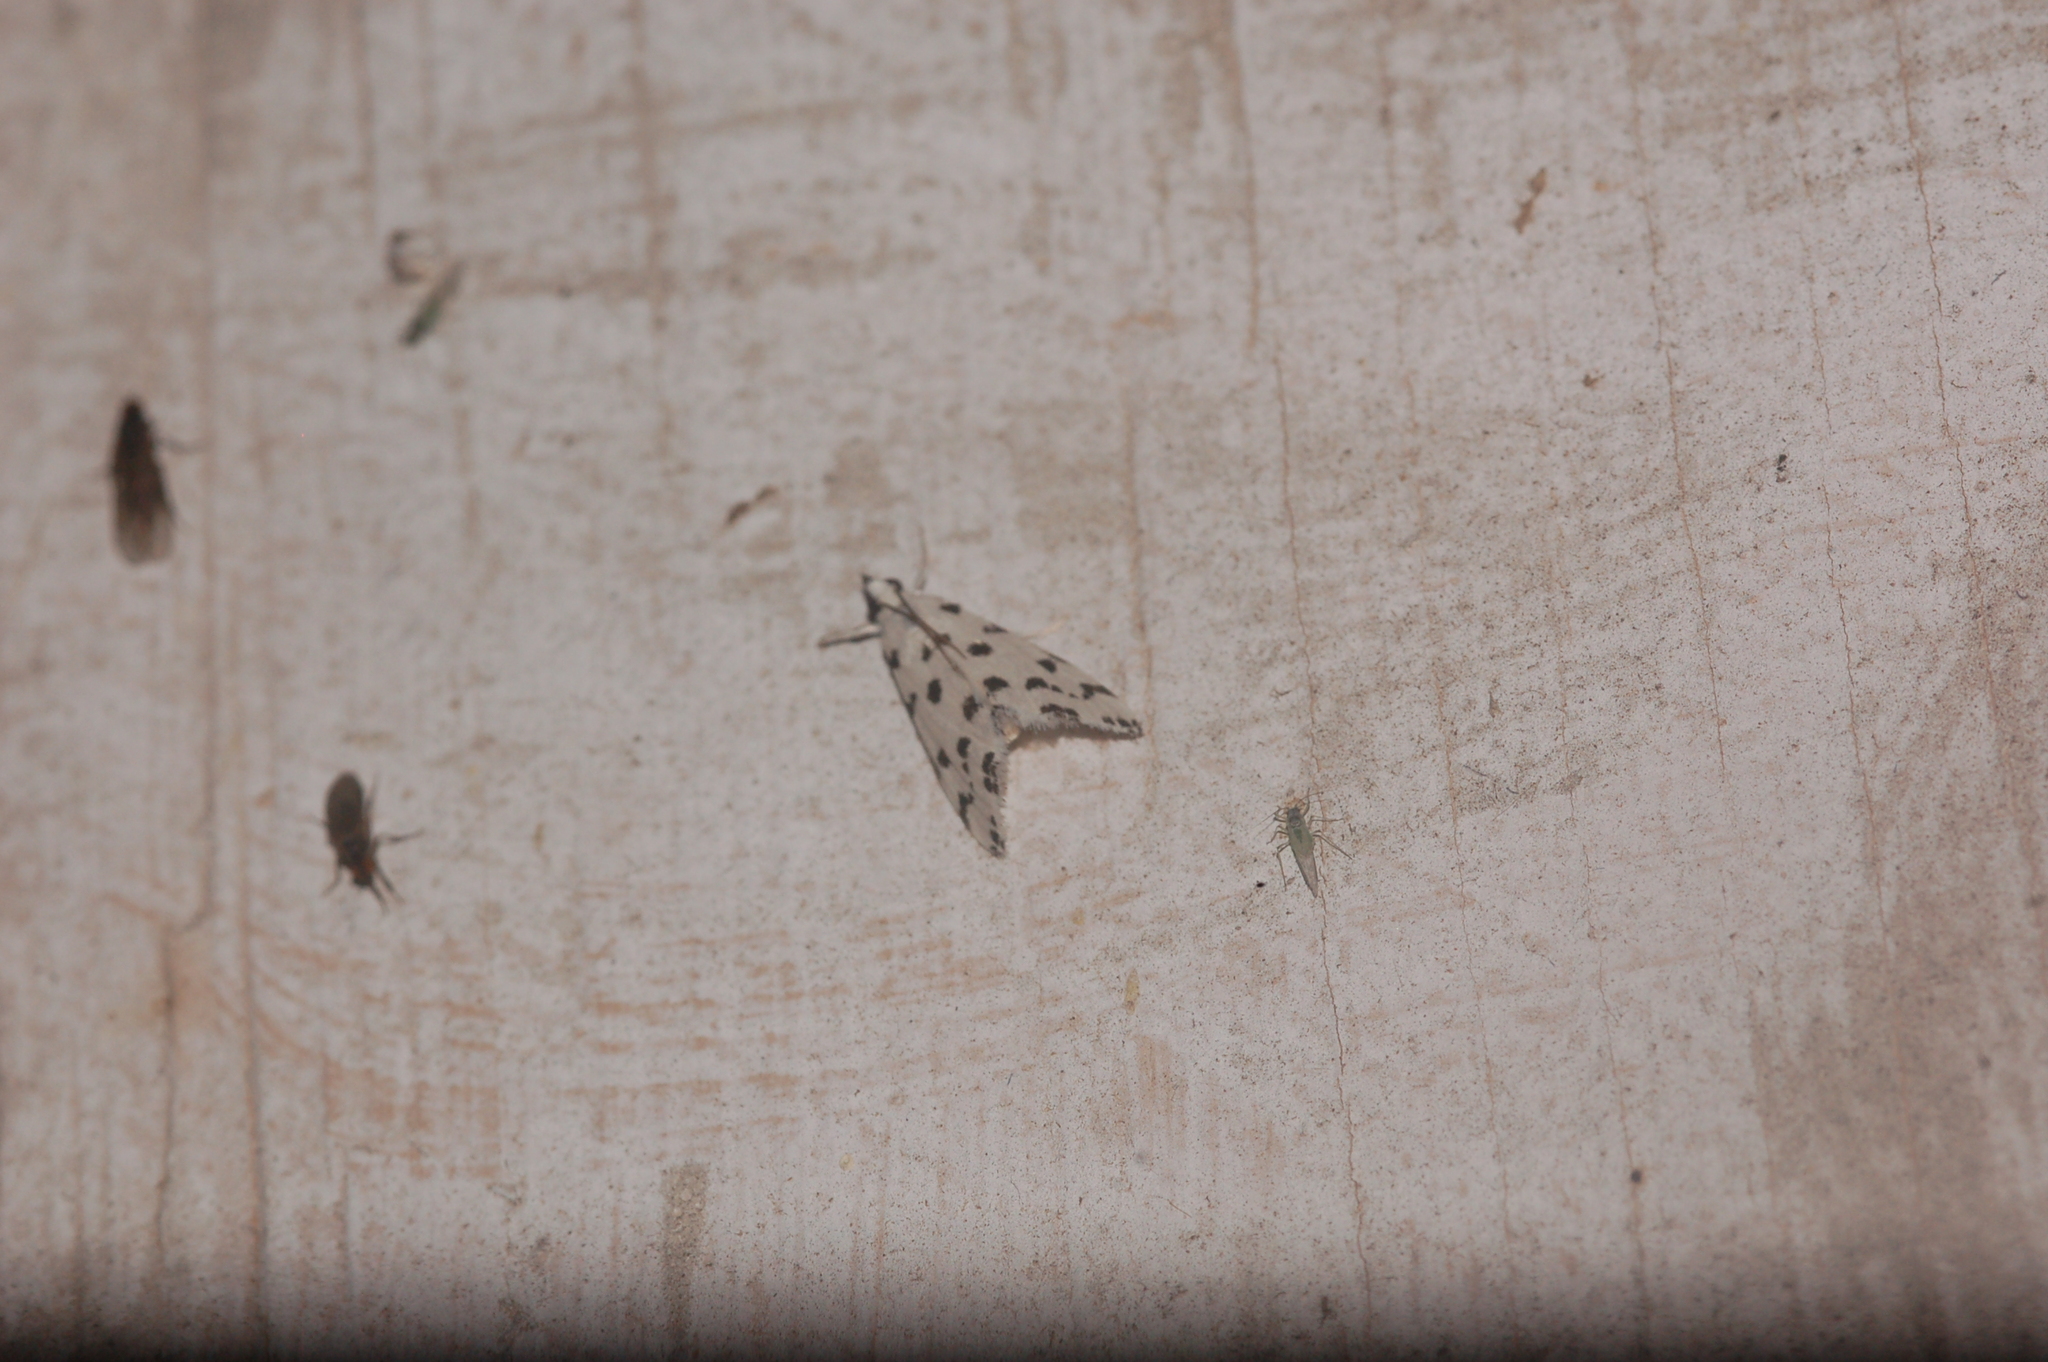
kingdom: Animalia
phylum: Arthropoda
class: Insecta
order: Lepidoptera
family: Crambidae
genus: Eustixia
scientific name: Eustixia pupula
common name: American cabbage pearl
